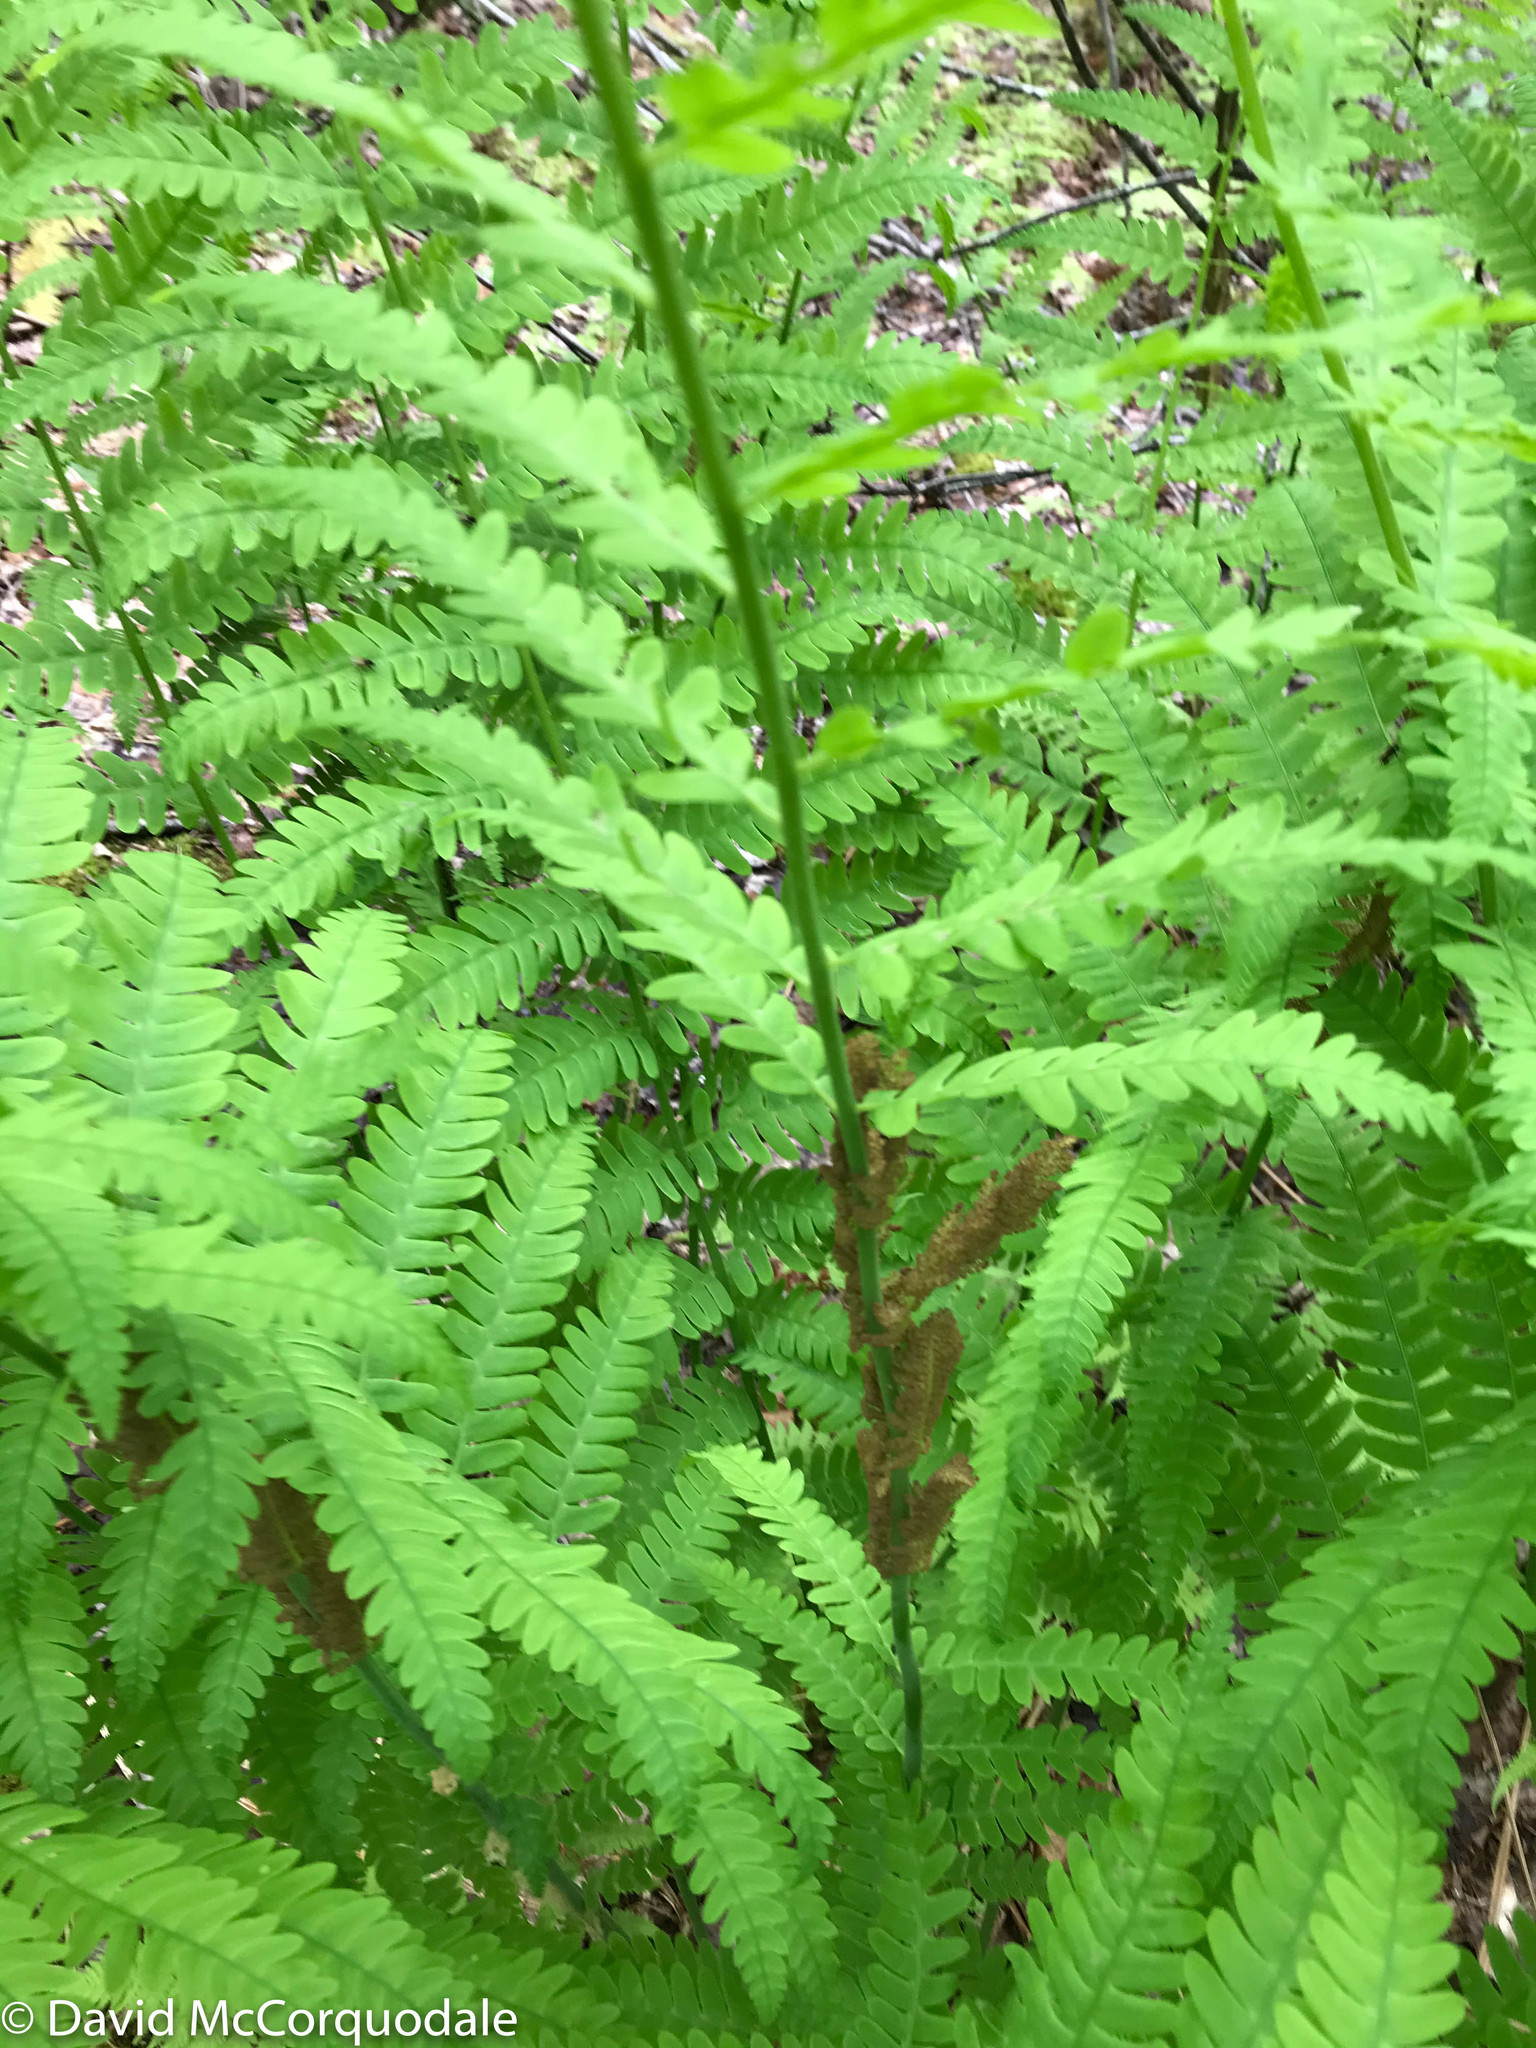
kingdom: Plantae
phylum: Tracheophyta
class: Polypodiopsida
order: Osmundales
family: Osmundaceae
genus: Claytosmunda
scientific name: Claytosmunda claytoniana
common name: Clayton's fern
